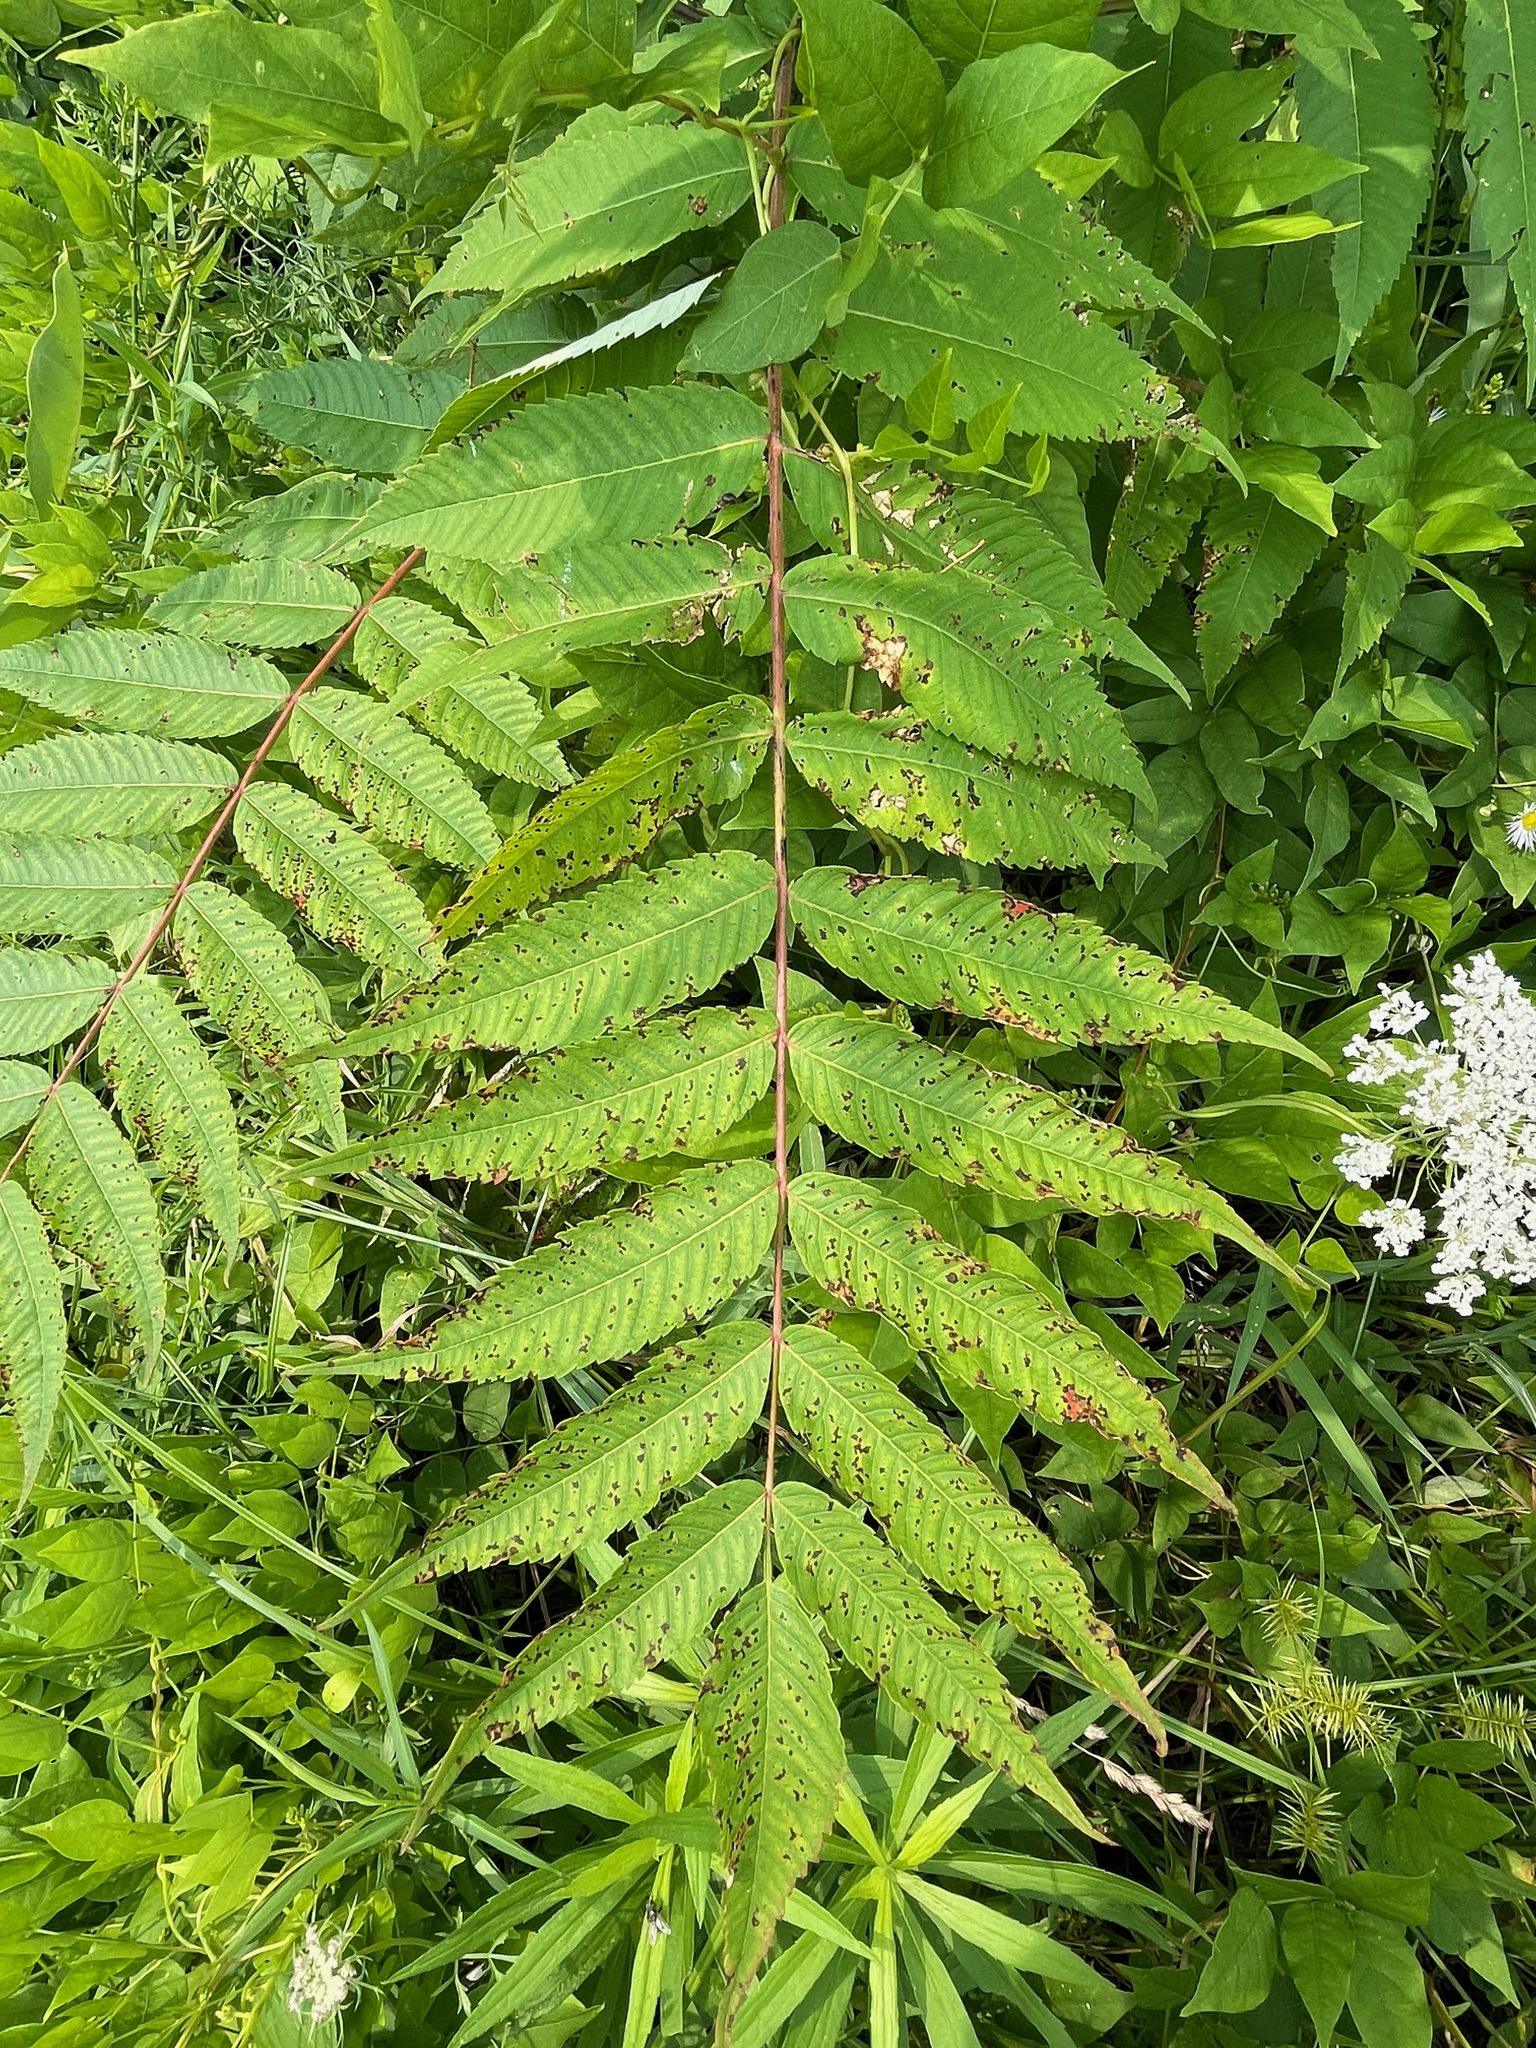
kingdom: Plantae
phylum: Tracheophyta
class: Magnoliopsida
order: Sapindales
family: Anacardiaceae
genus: Rhus
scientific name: Rhus typhina
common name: Staghorn sumac
